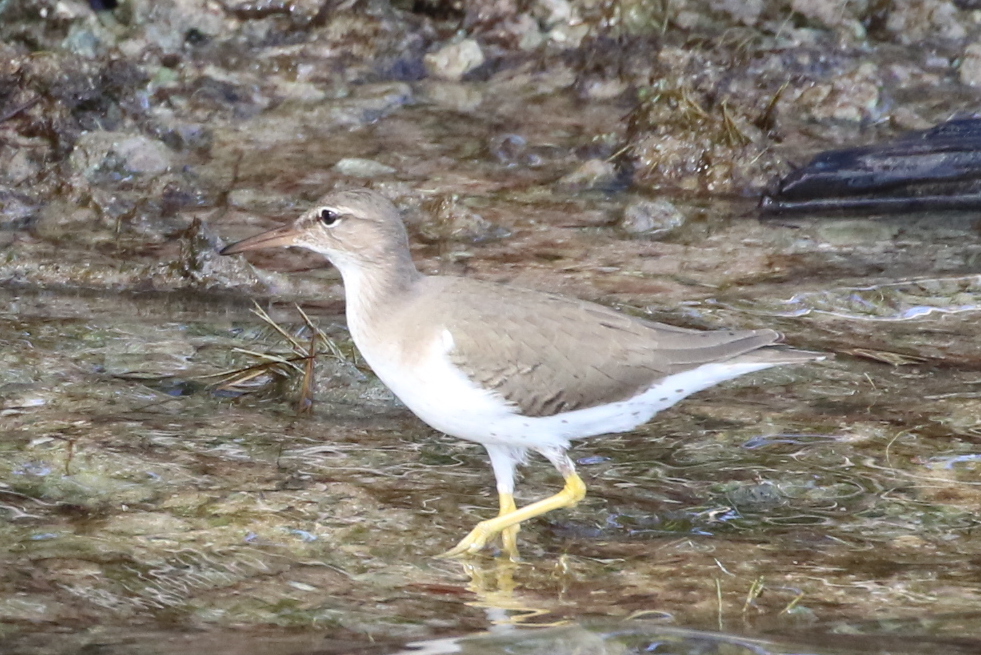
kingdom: Animalia
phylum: Chordata
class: Aves
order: Charadriiformes
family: Scolopacidae
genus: Actitis
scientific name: Actitis macularius
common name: Spotted sandpiper
